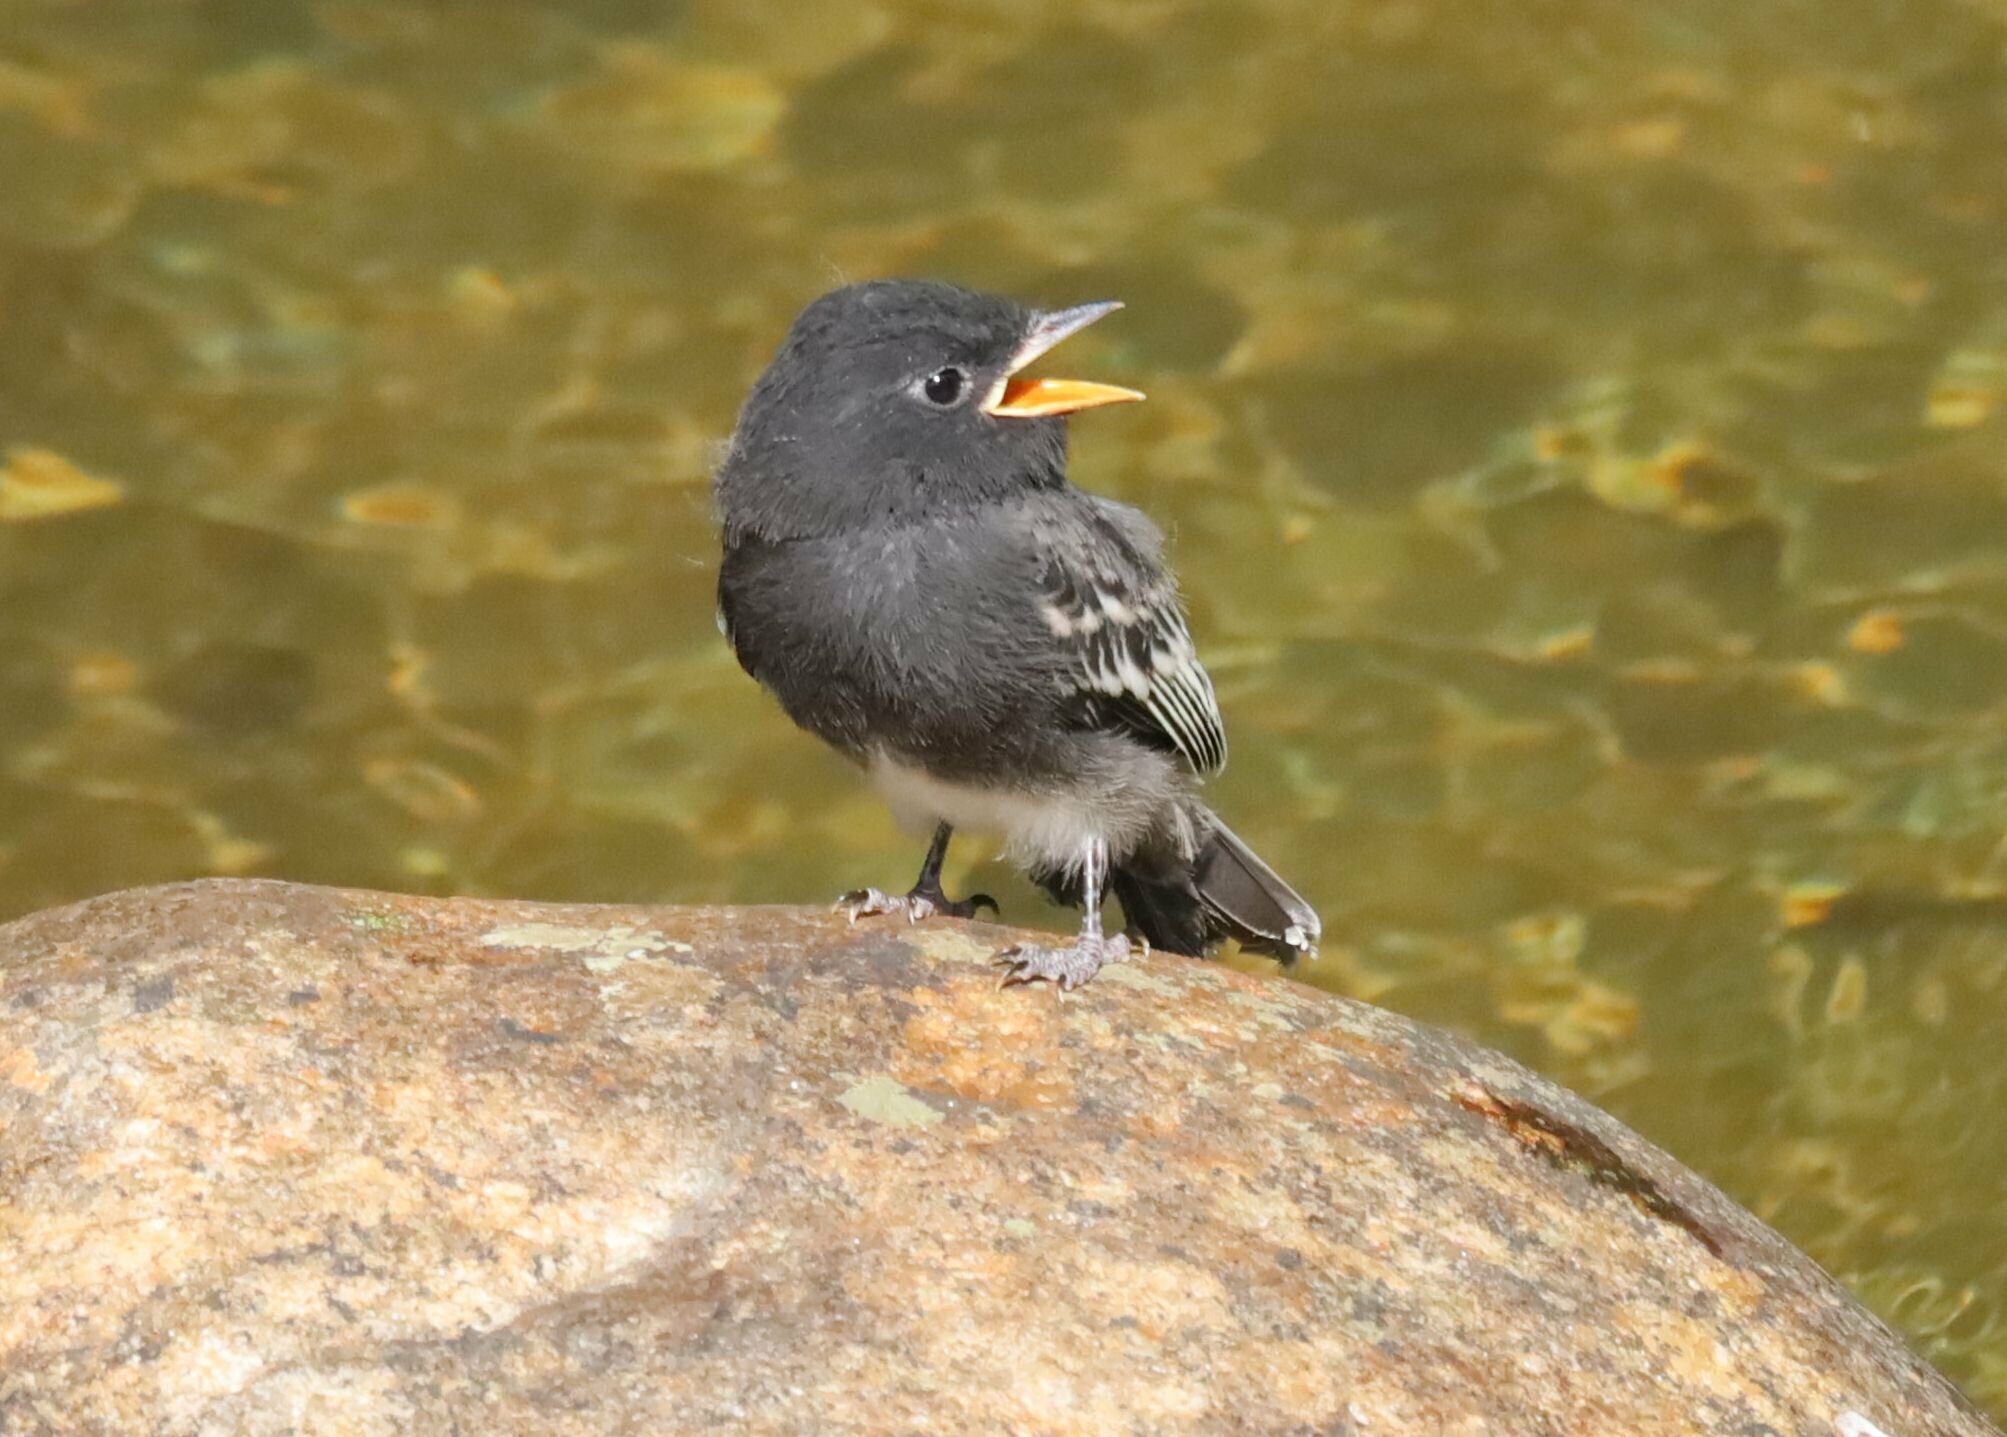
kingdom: Animalia
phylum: Chordata
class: Aves
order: Passeriformes
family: Tyrannidae
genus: Sayornis
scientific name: Sayornis nigricans
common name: Black phoebe
